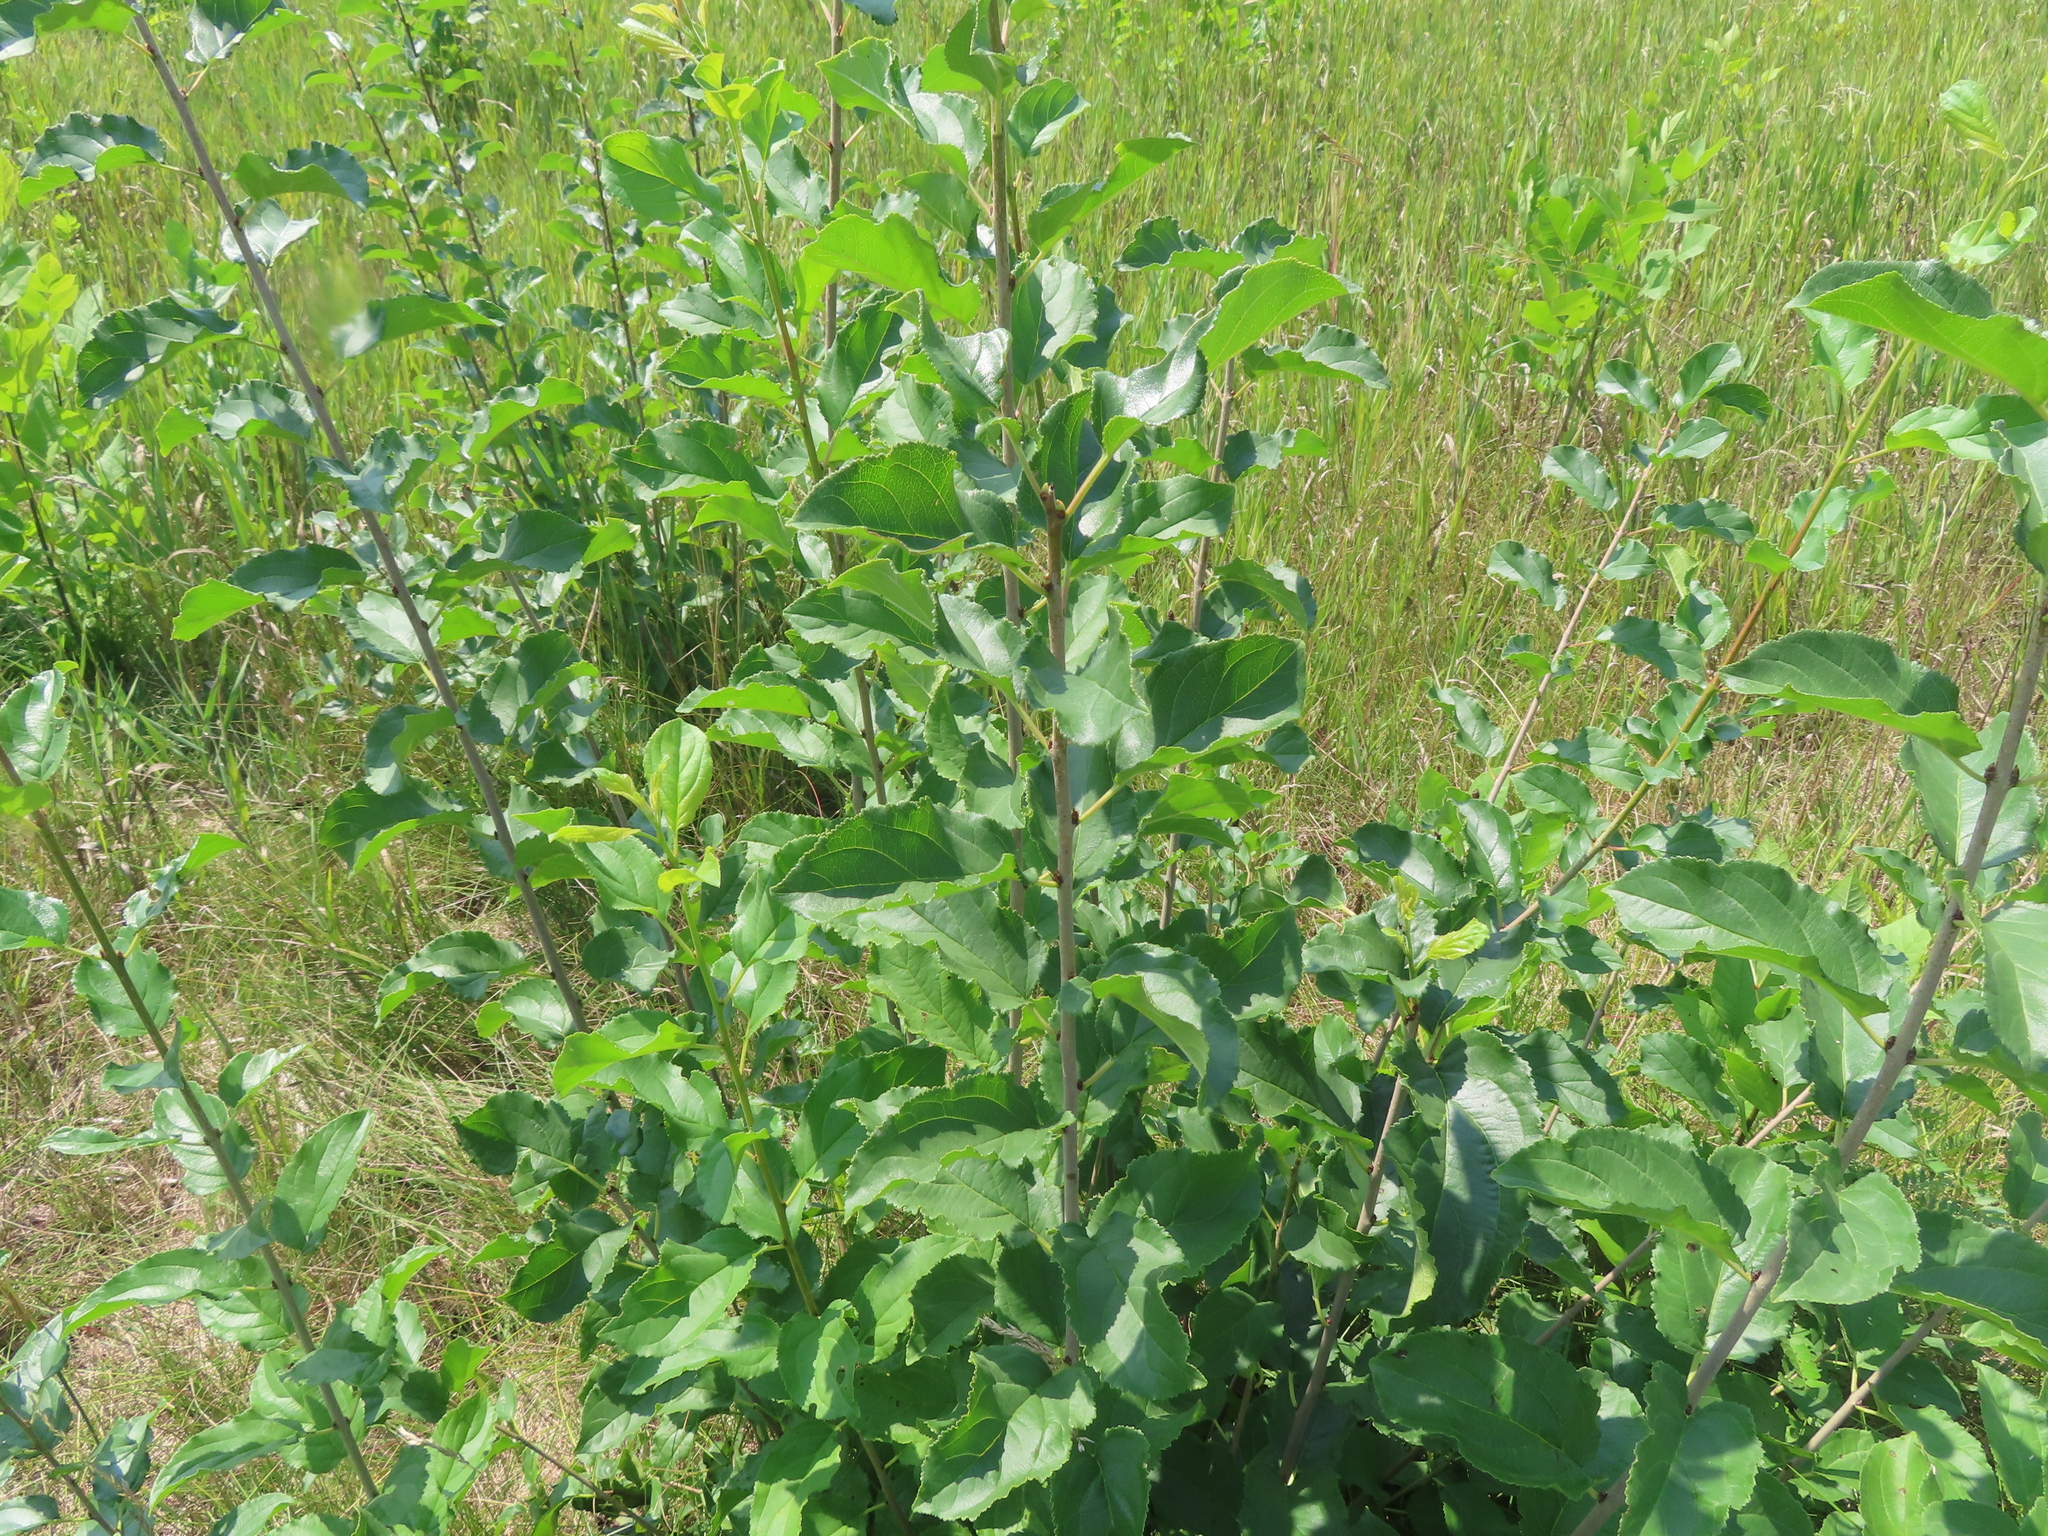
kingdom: Plantae
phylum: Tracheophyta
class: Magnoliopsida
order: Rosales
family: Rhamnaceae
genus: Rhamnus
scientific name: Rhamnus cathartica
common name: Common buckthorn
